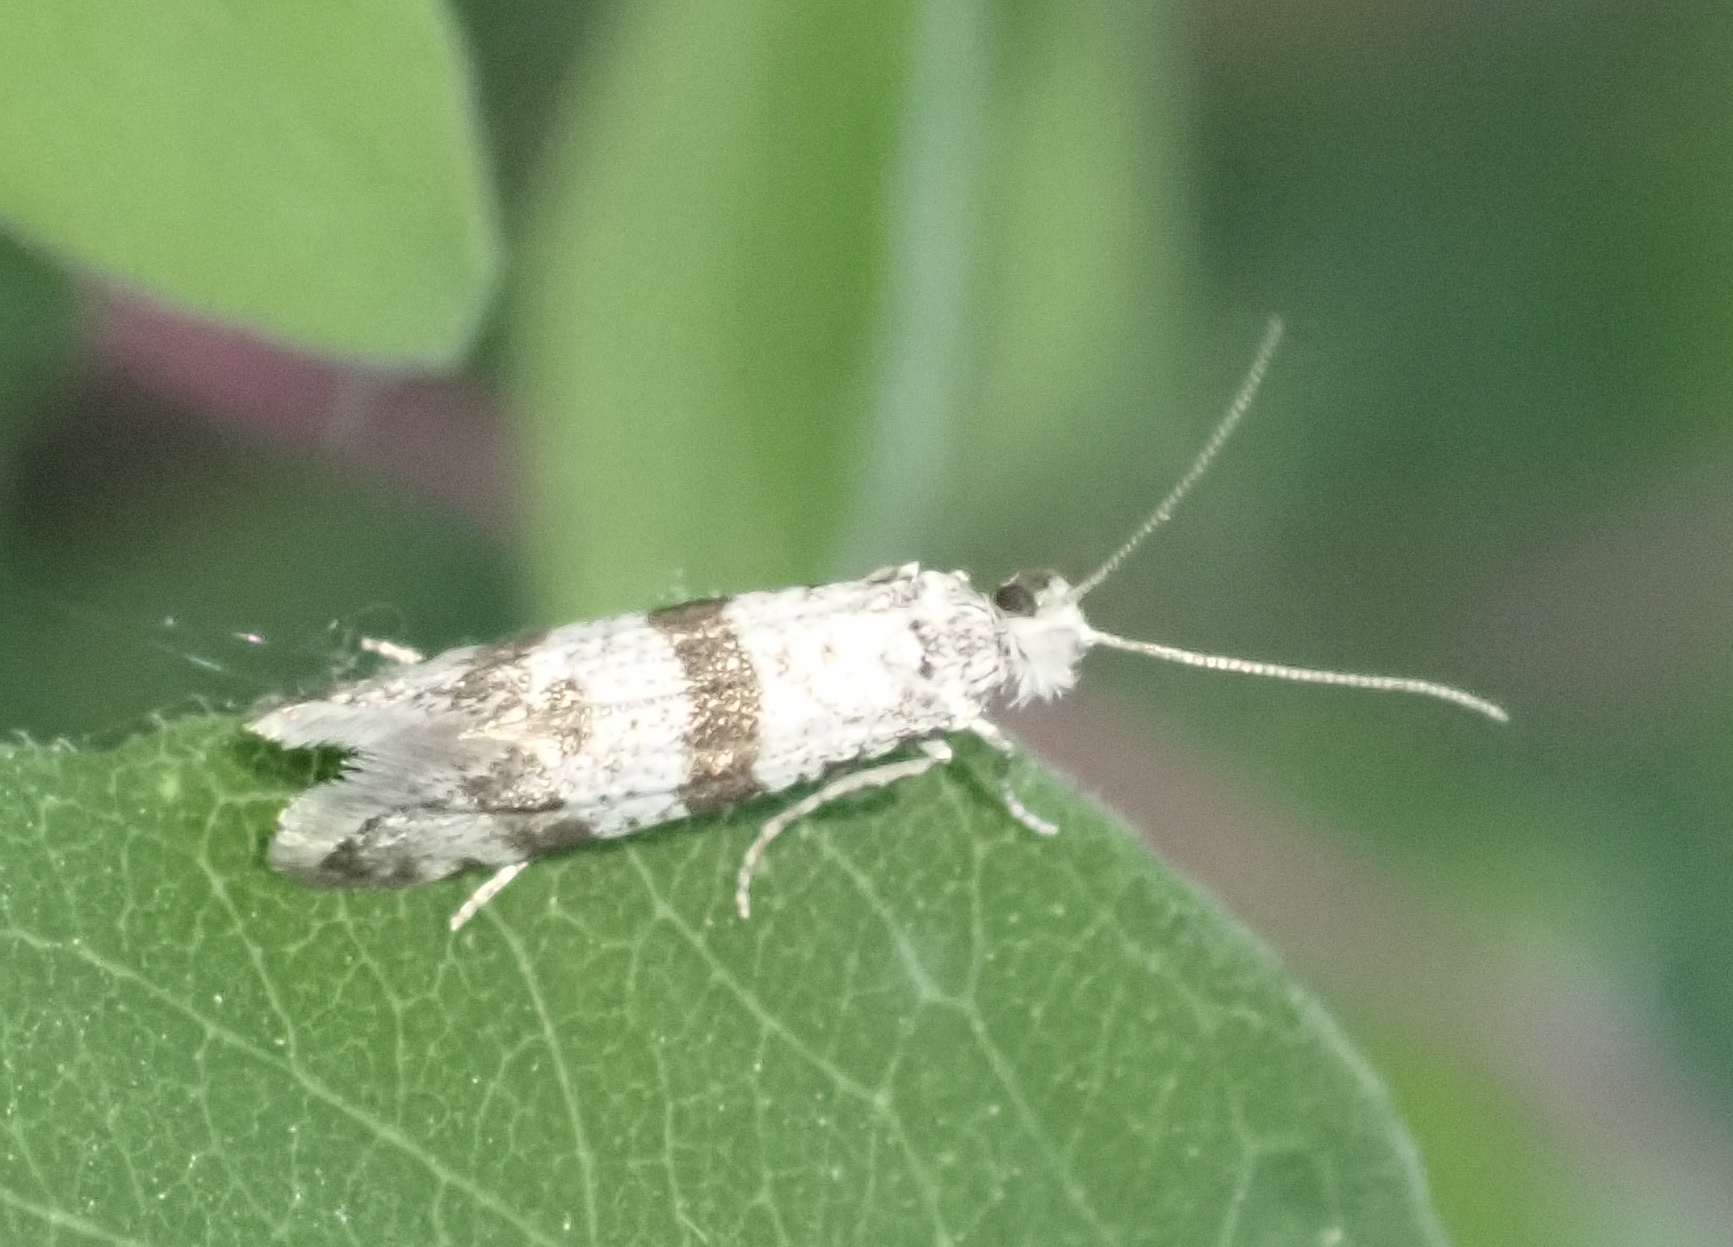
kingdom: Animalia
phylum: Arthropoda
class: Insecta
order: Lepidoptera
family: Yponomeutidae
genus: Scythropia
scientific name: Scythropia crataegella
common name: Hawthorn moth
